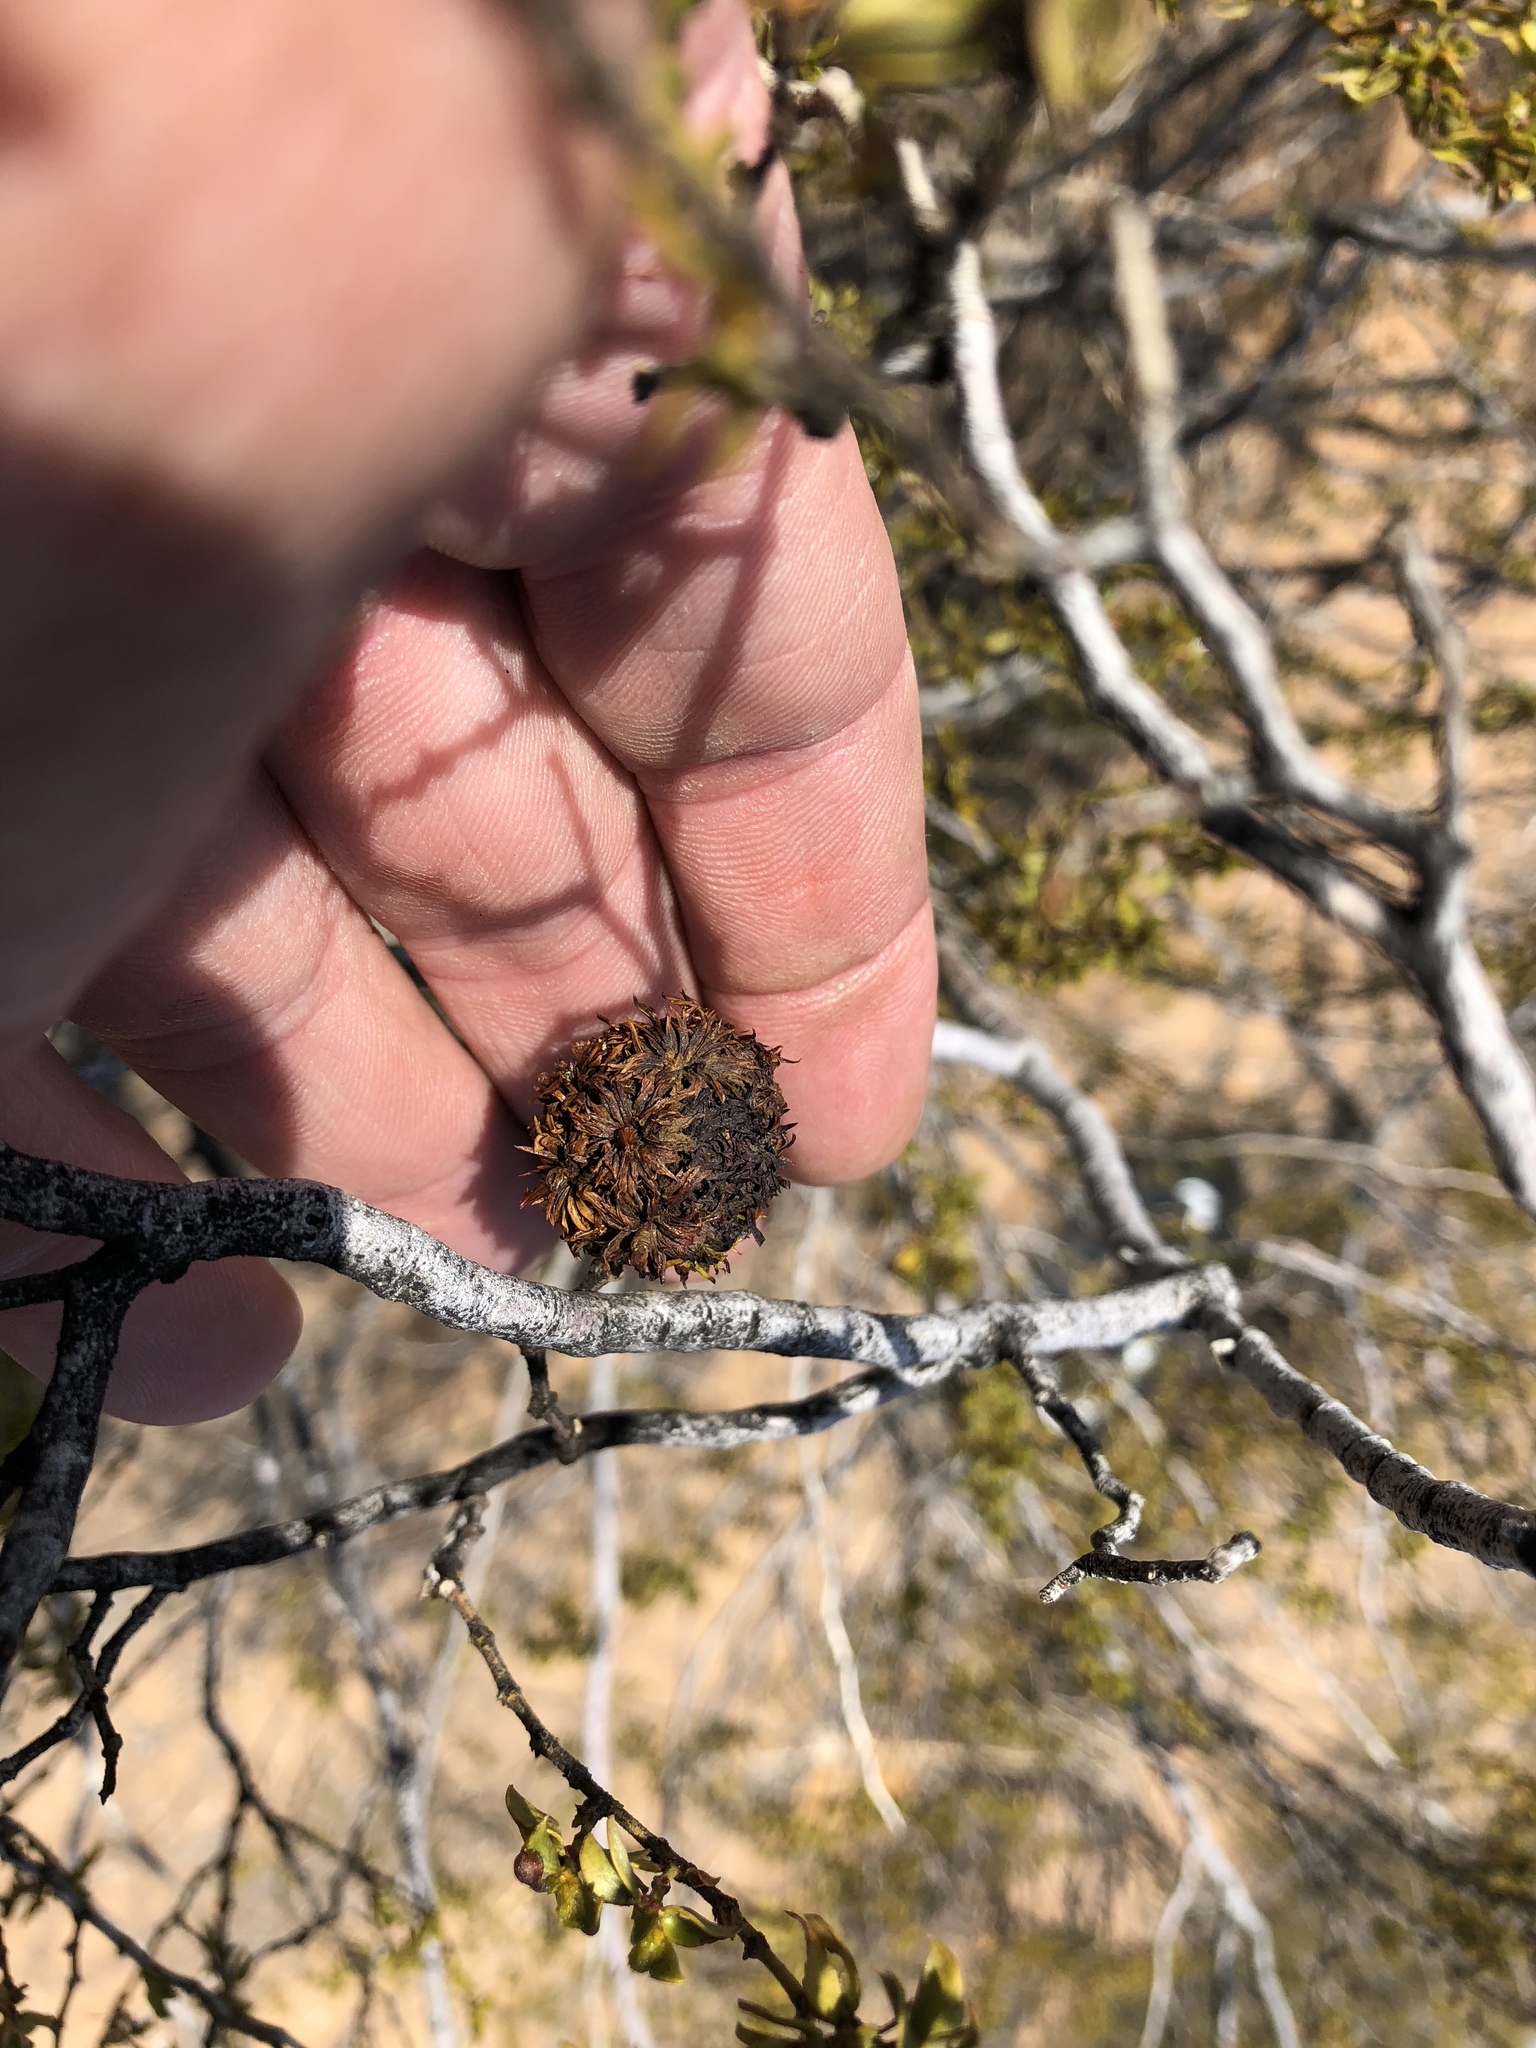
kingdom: Animalia
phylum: Arthropoda
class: Insecta
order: Diptera
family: Cecidomyiidae
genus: Asphondylia
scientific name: Asphondylia auripila
